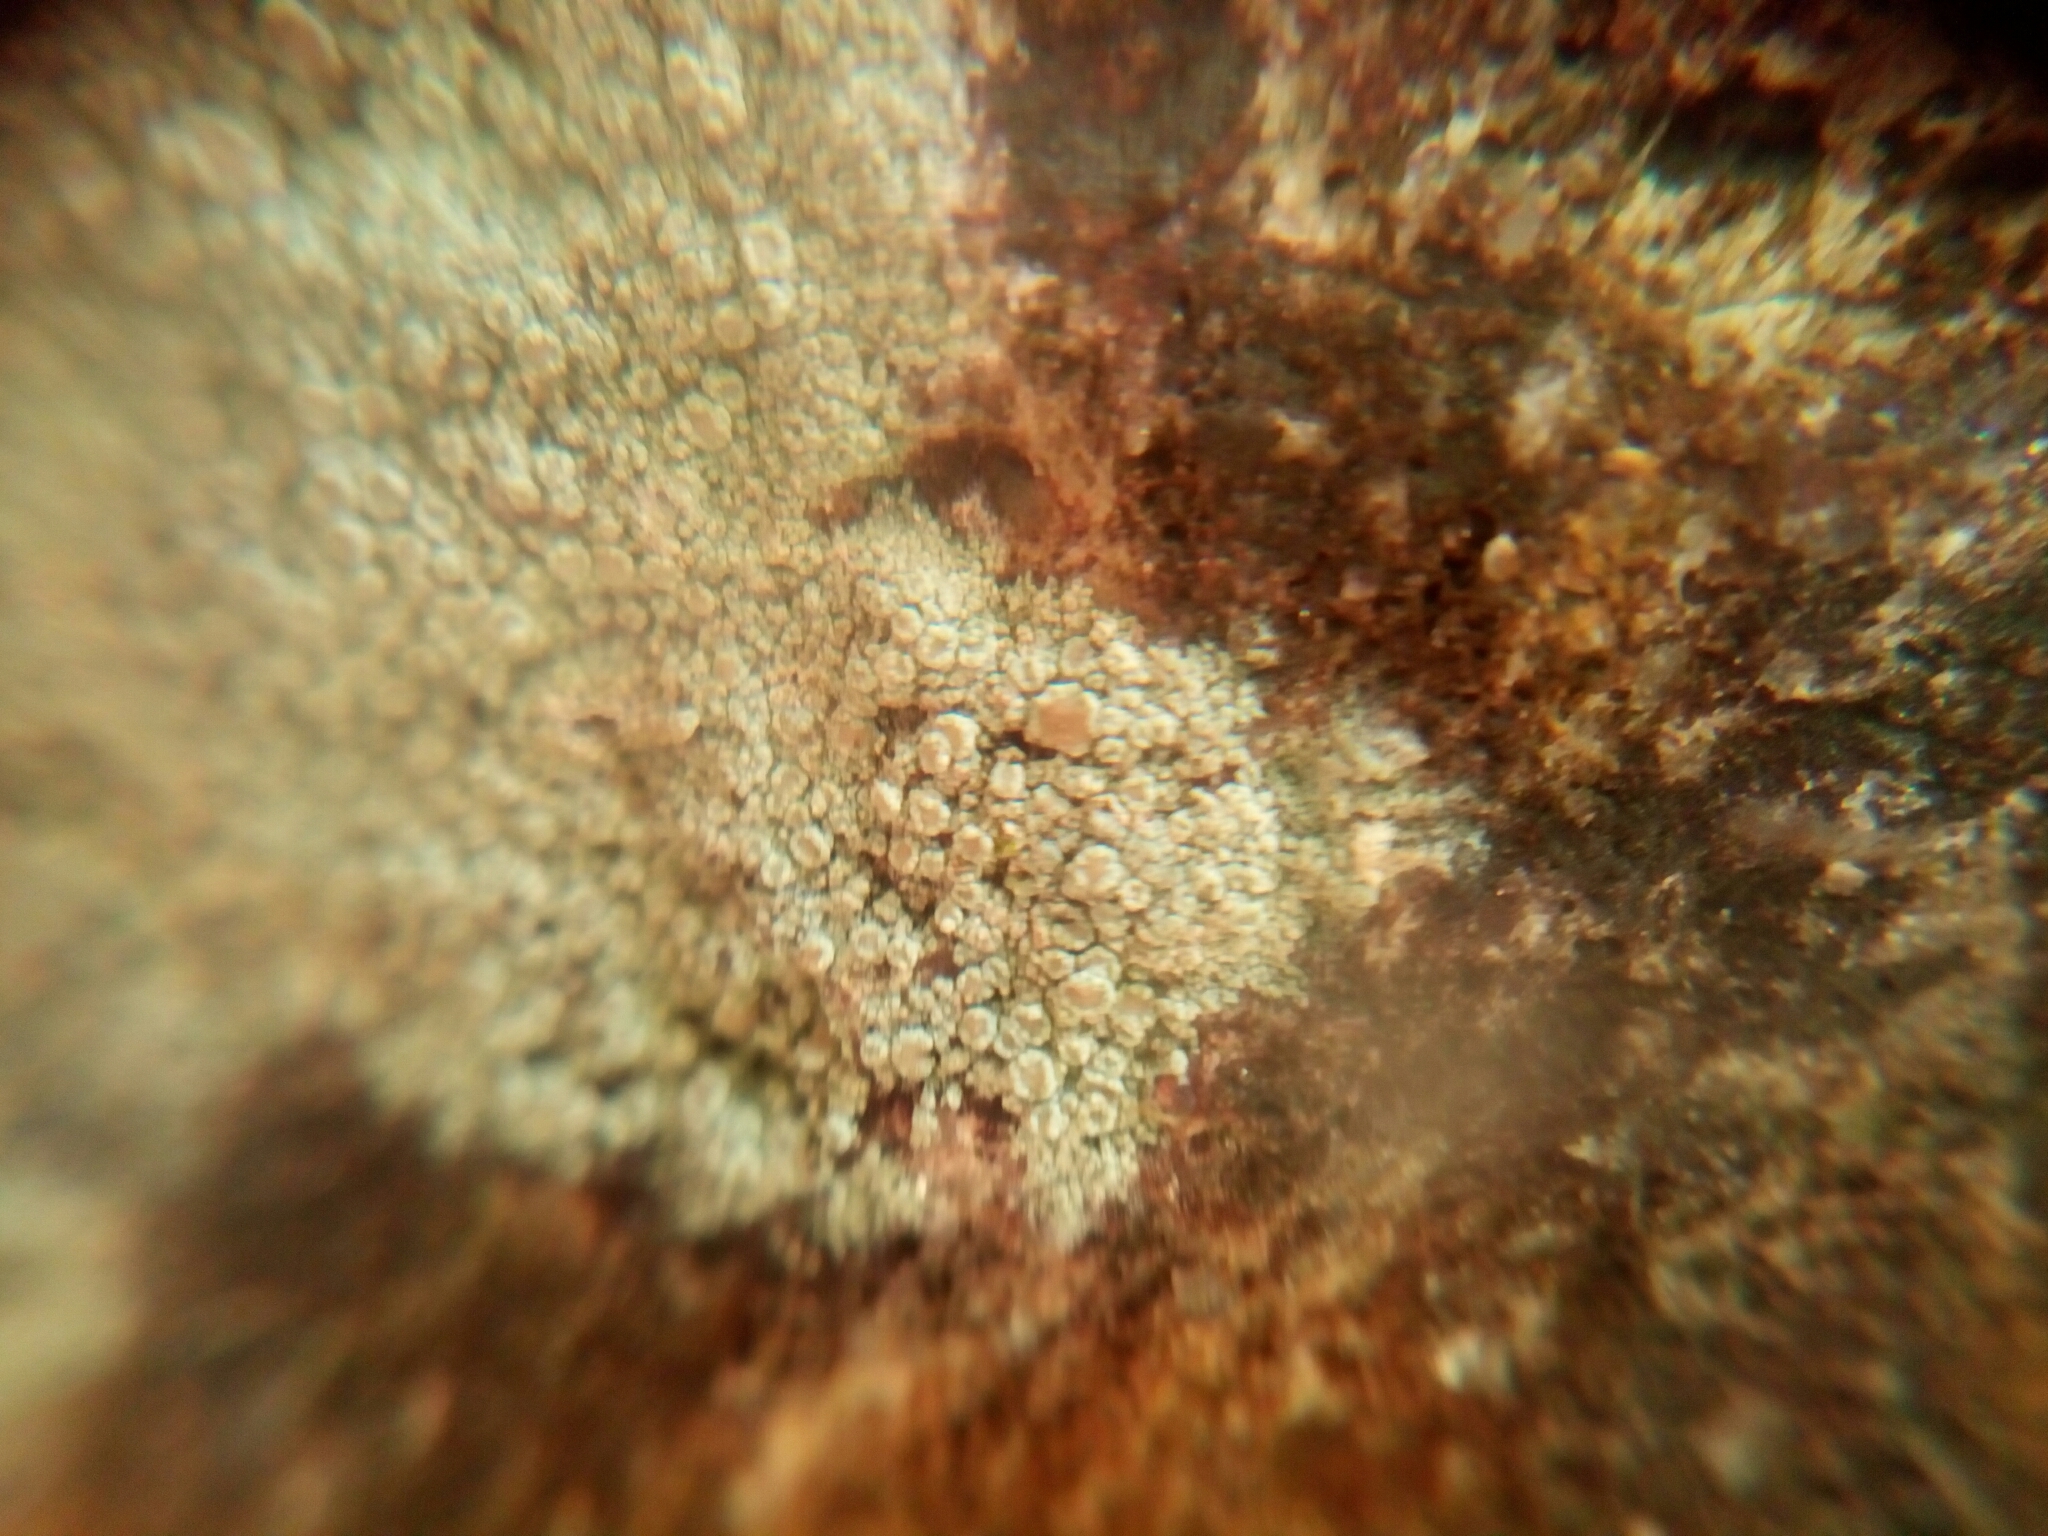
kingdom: Fungi
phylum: Ascomycota
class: Lecanoromycetes
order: Lecanorales
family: Lecanoraceae
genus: Lecanora
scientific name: Lecanora strobilina
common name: Mealy rim-lichen
